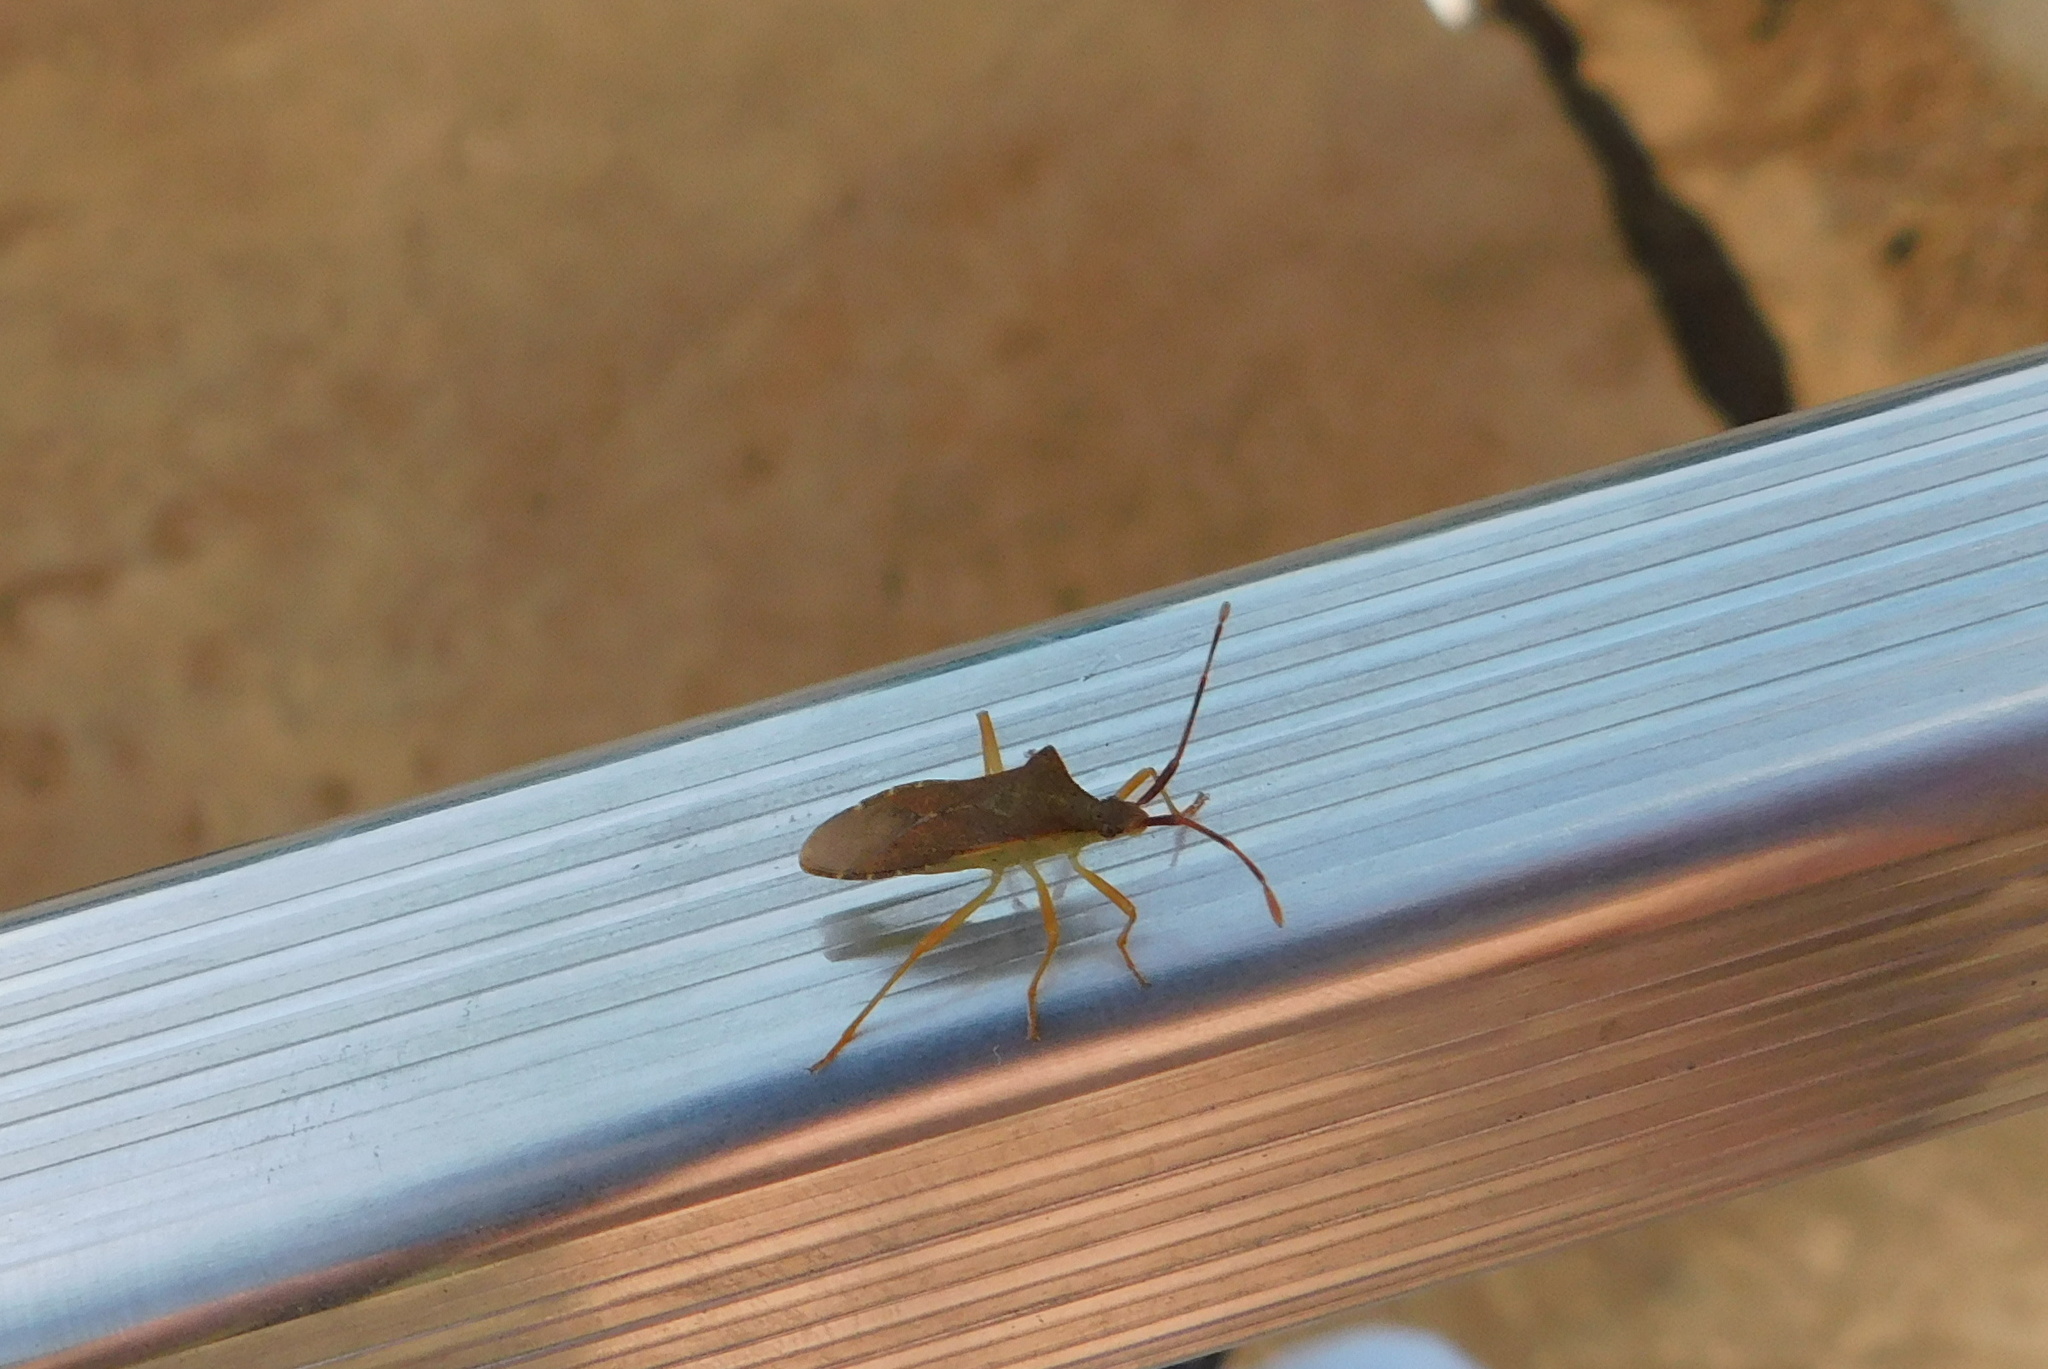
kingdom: Animalia
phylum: Arthropoda
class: Insecta
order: Hemiptera
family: Coreidae
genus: Gonocerus
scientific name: Gonocerus acuteangulatus
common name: Box bug
